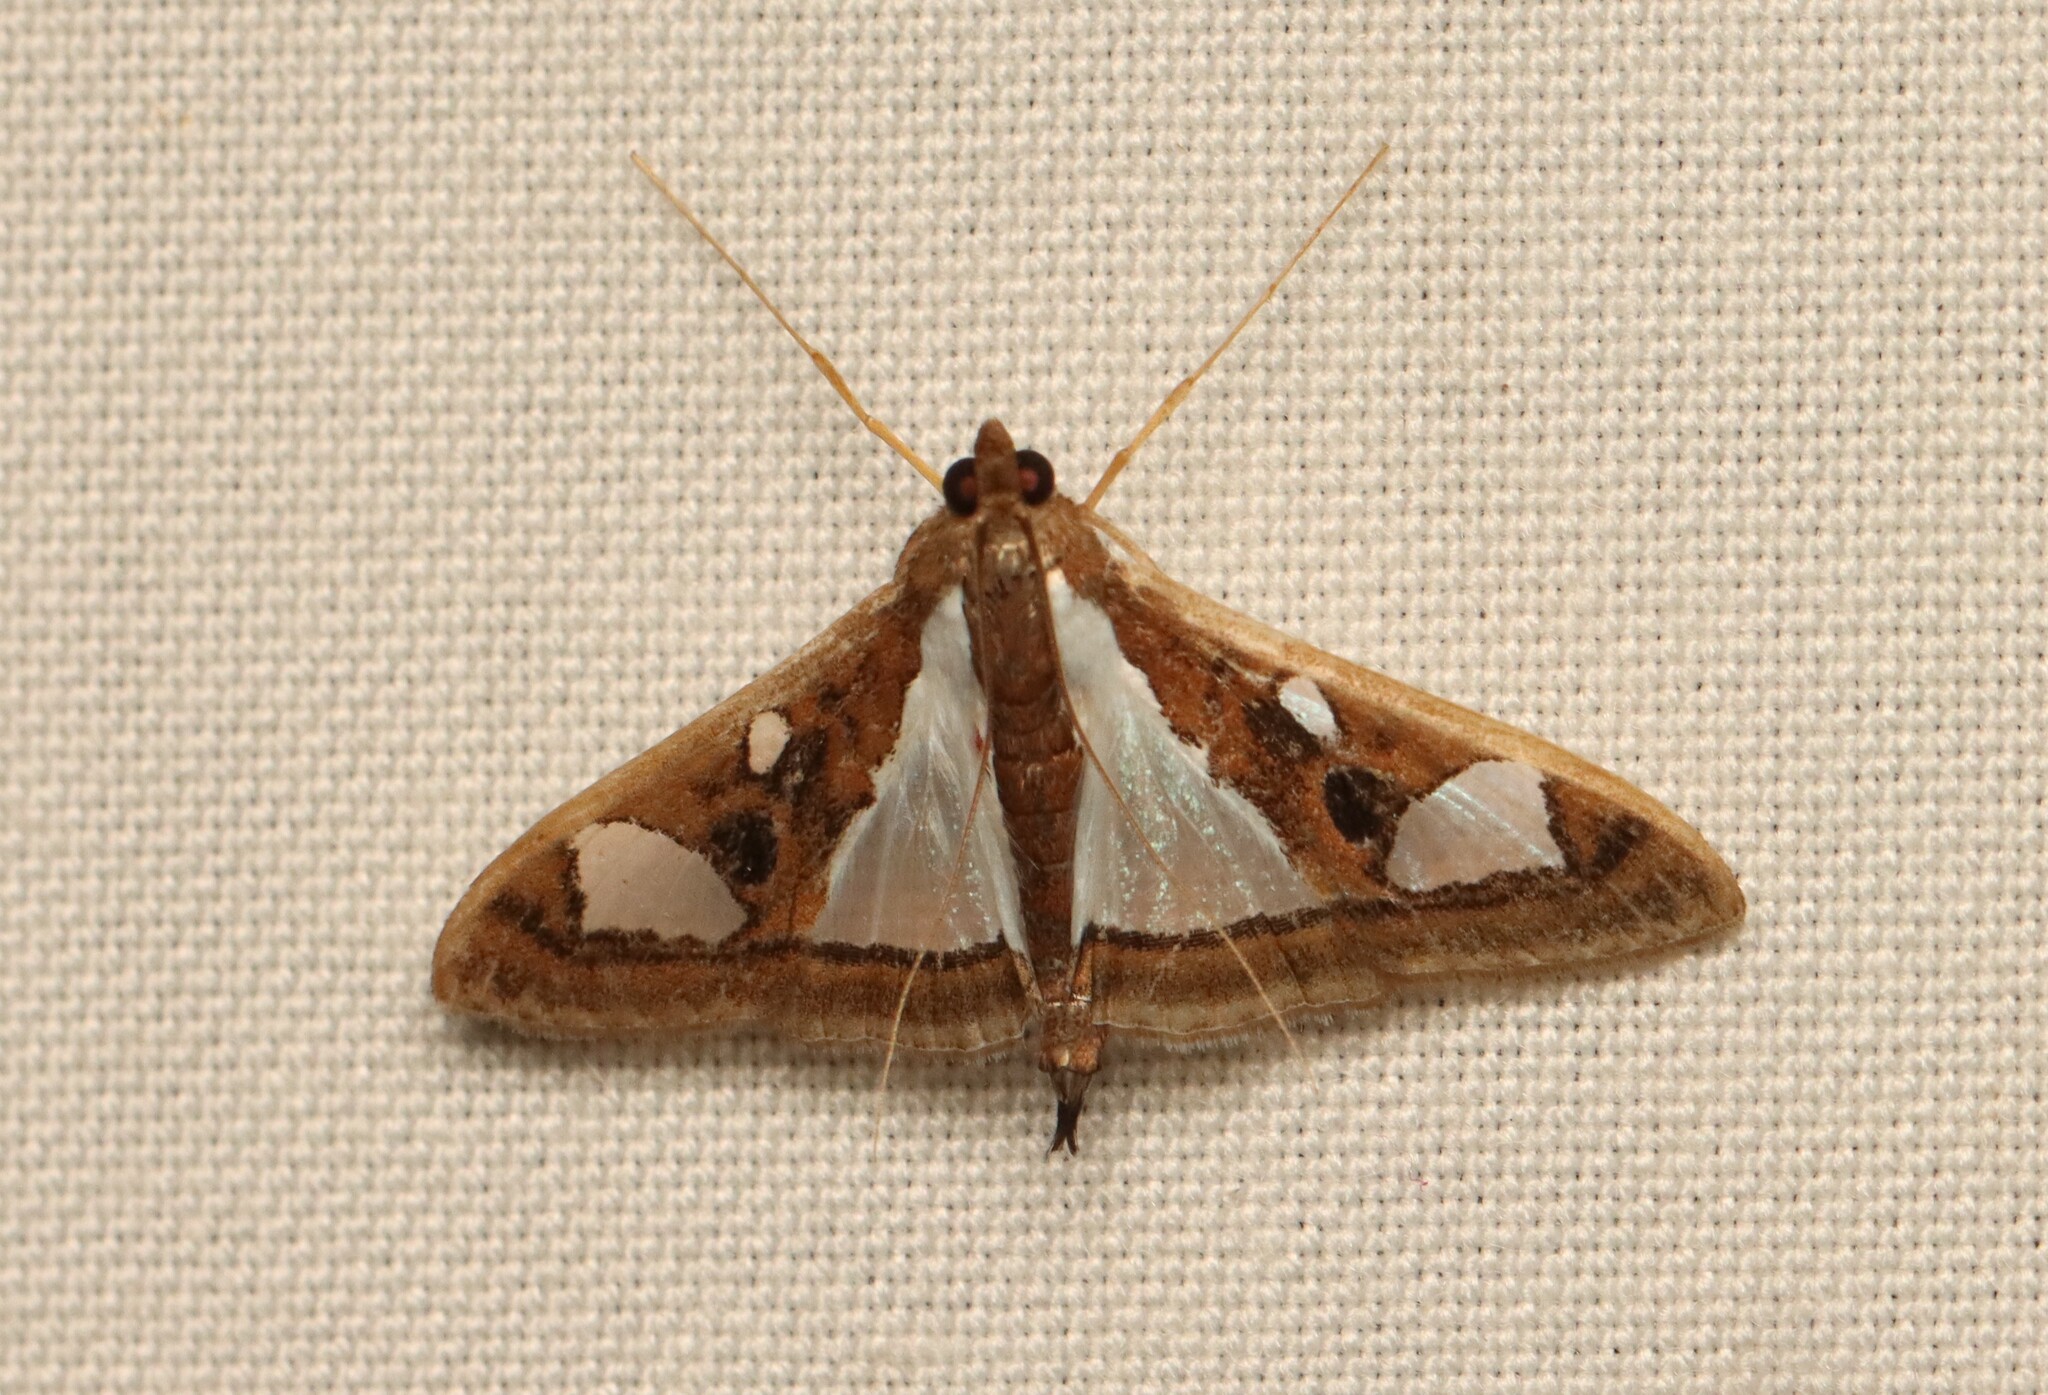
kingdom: Animalia
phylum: Arthropoda
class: Insecta
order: Lepidoptera
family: Crambidae
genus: Glyphodes
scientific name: Glyphodes bivitralis
